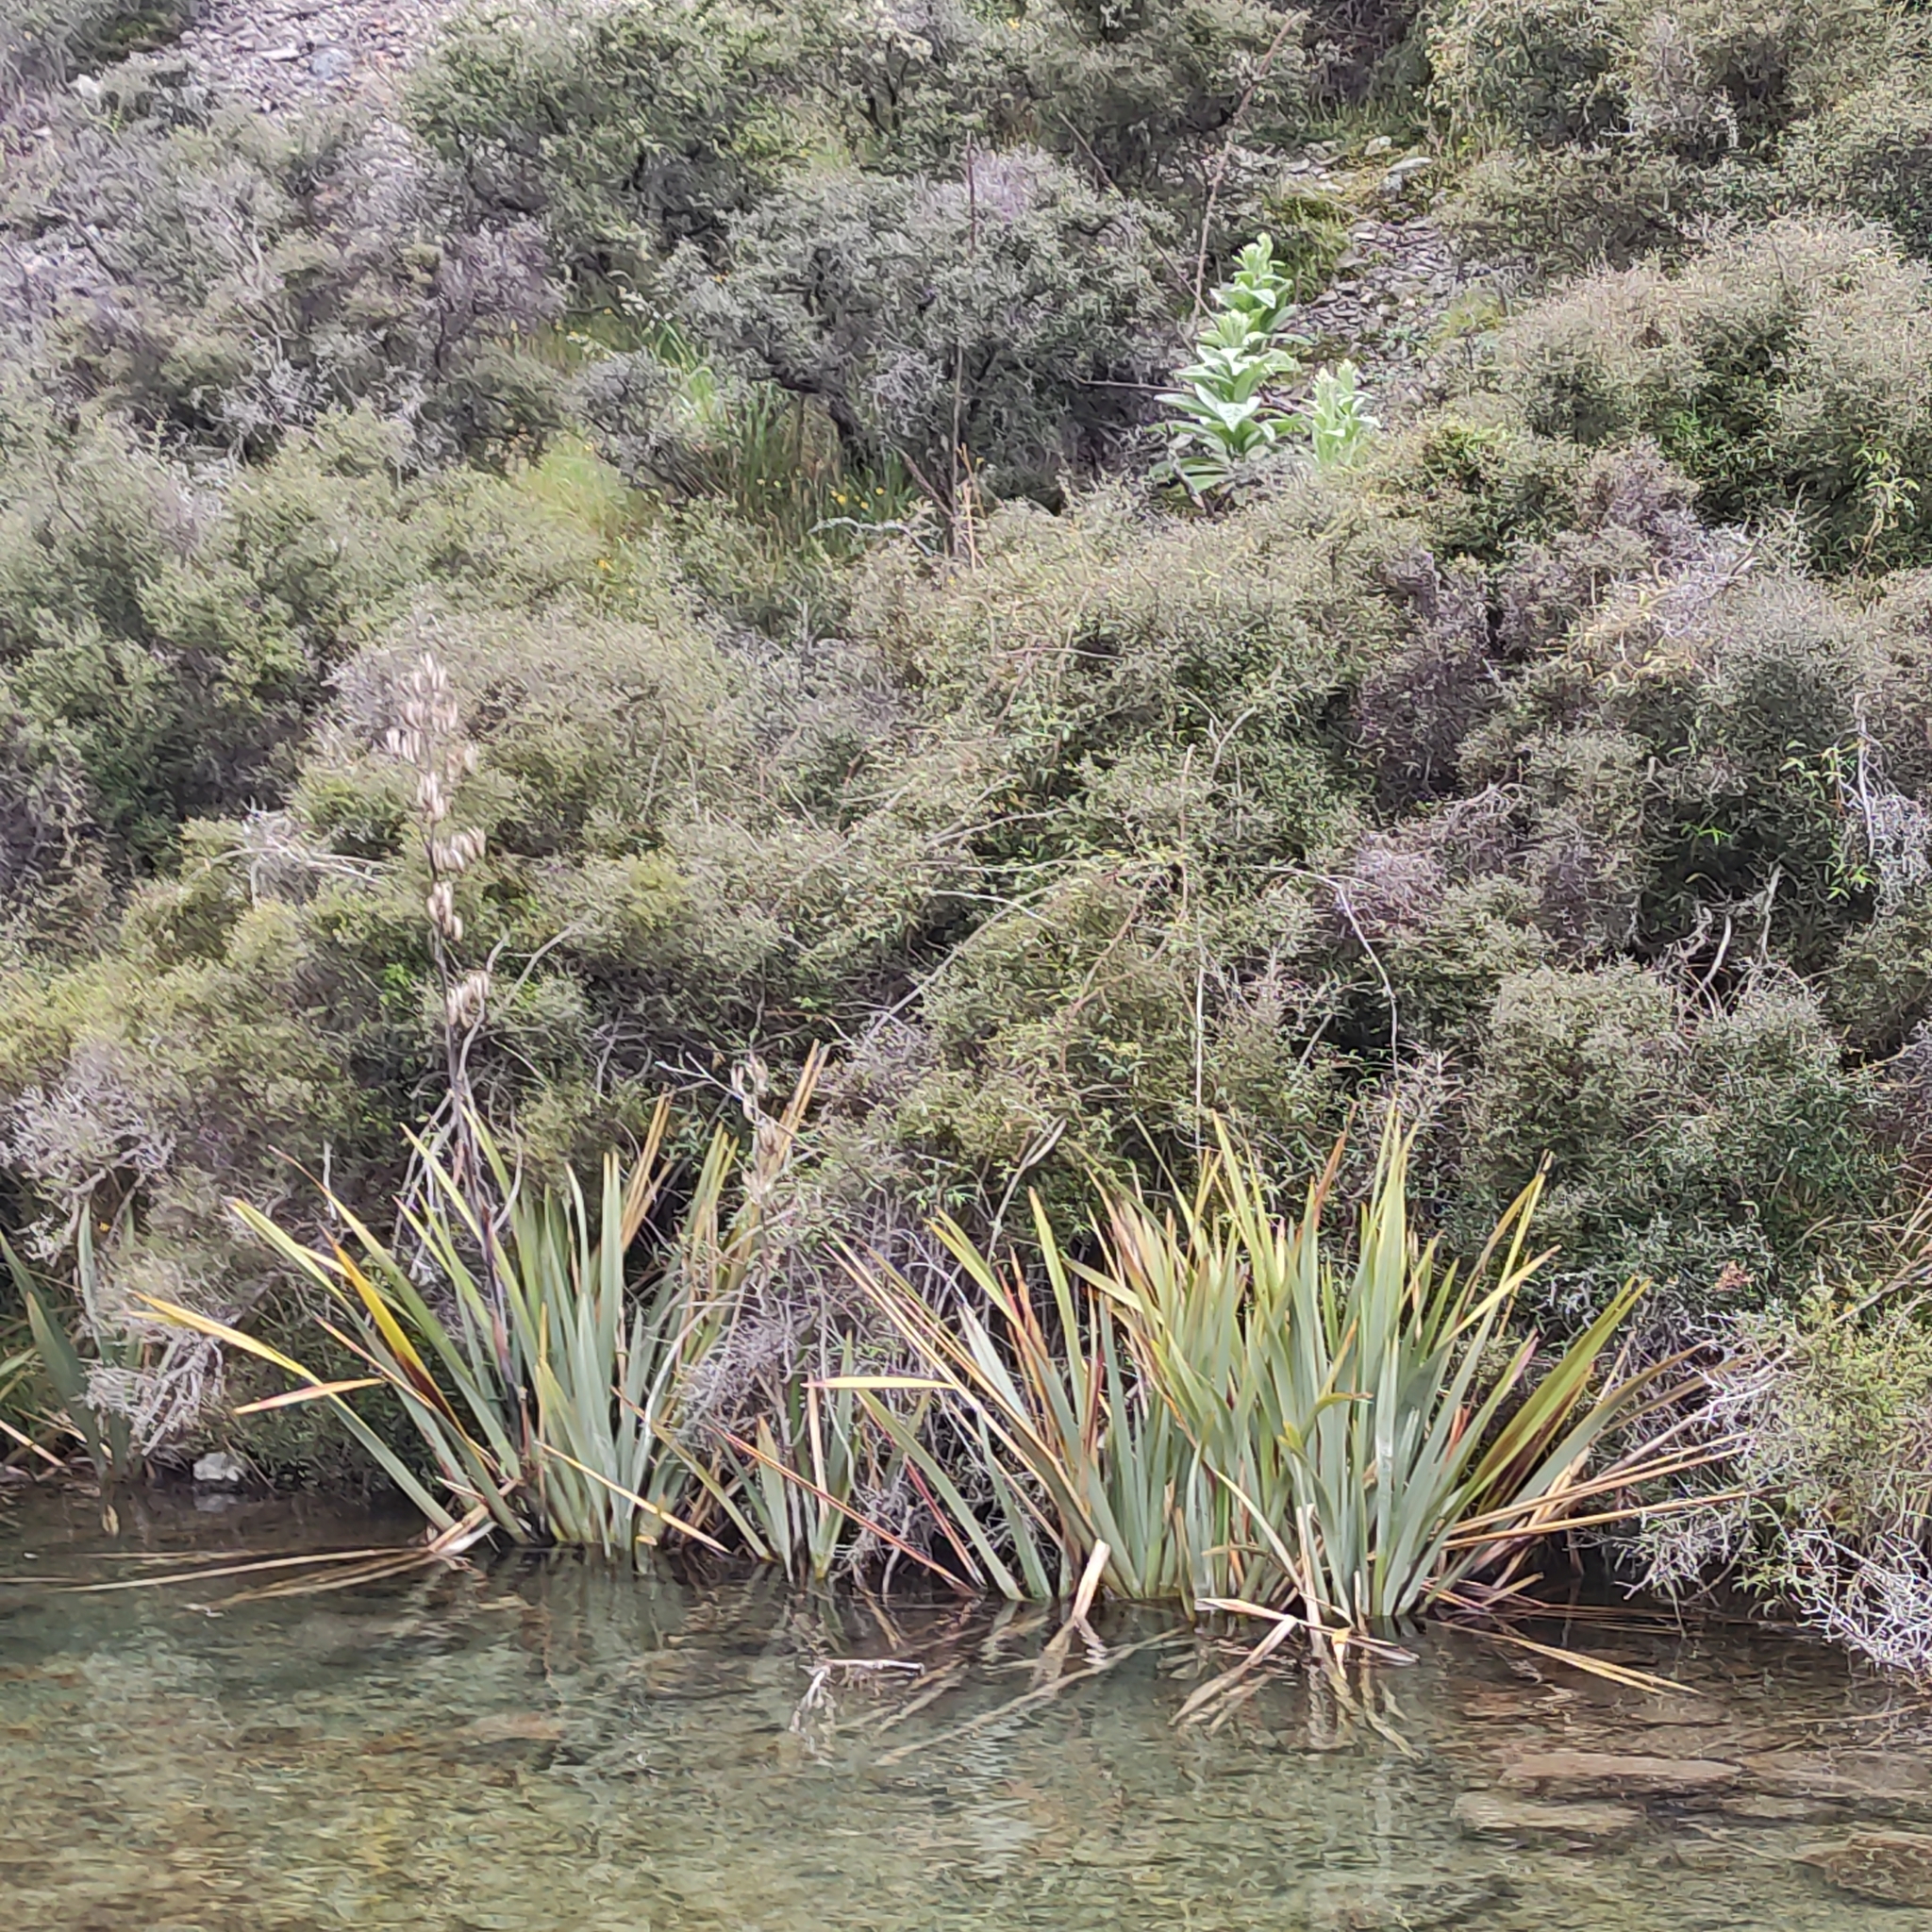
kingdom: Plantae
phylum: Tracheophyta
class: Liliopsida
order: Asparagales
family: Asphodelaceae
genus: Phormium
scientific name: Phormium tenax
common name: New zealand flax
